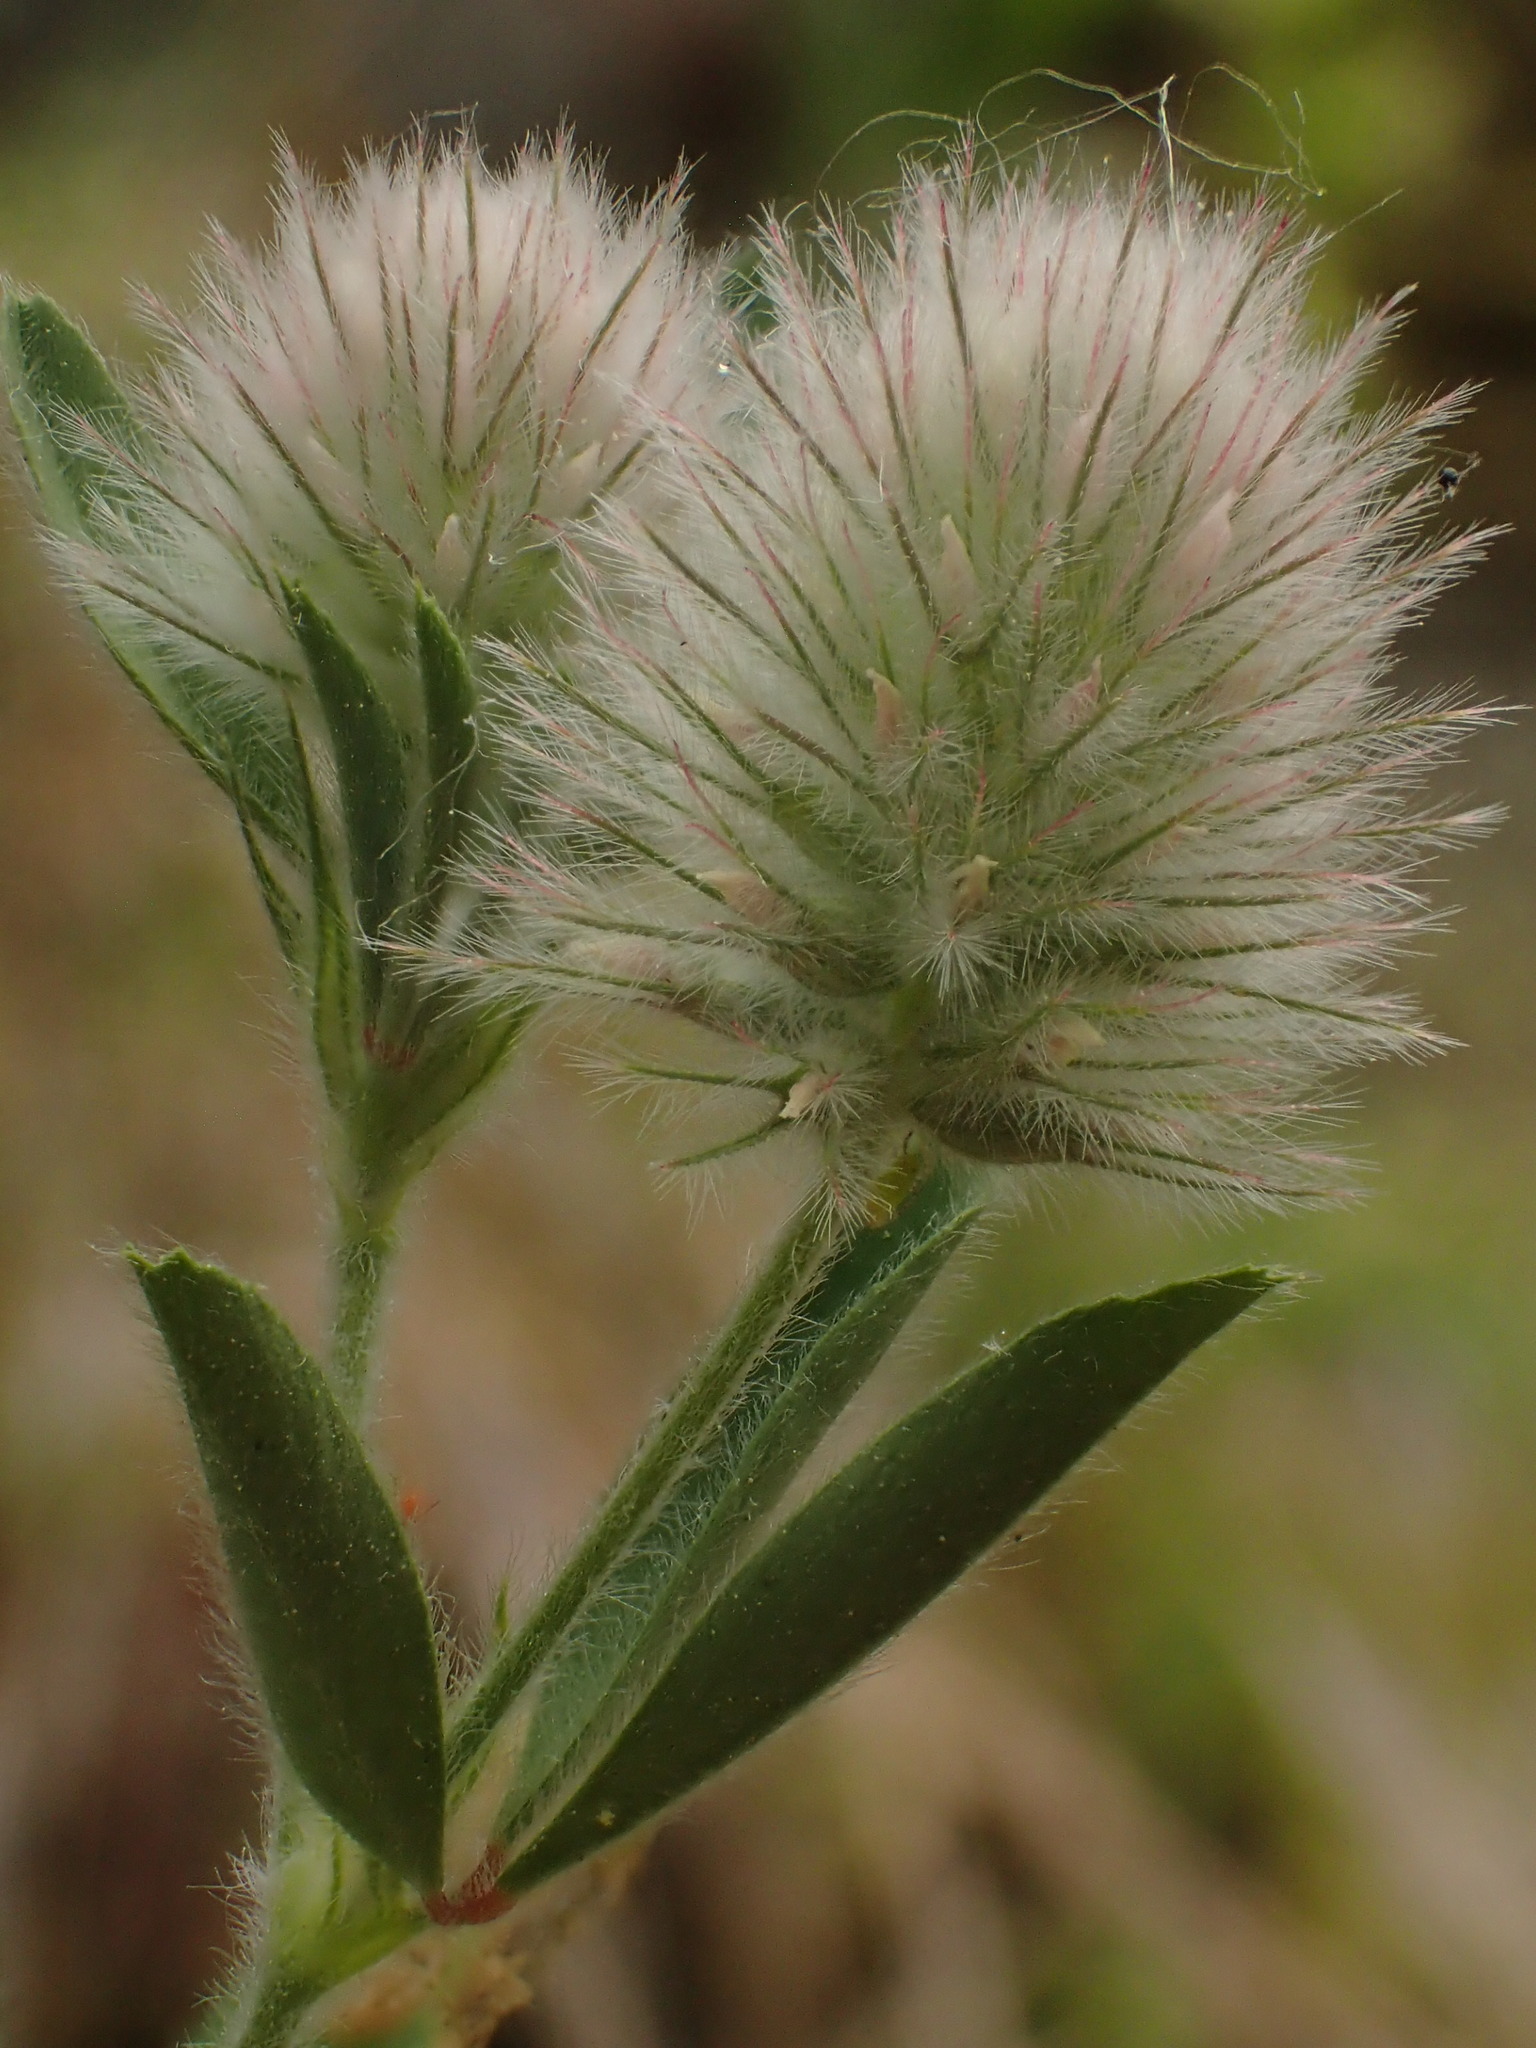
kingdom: Plantae
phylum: Tracheophyta
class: Magnoliopsida
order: Fabales
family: Fabaceae
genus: Trifolium
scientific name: Trifolium arvense
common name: Hare's-foot clover
